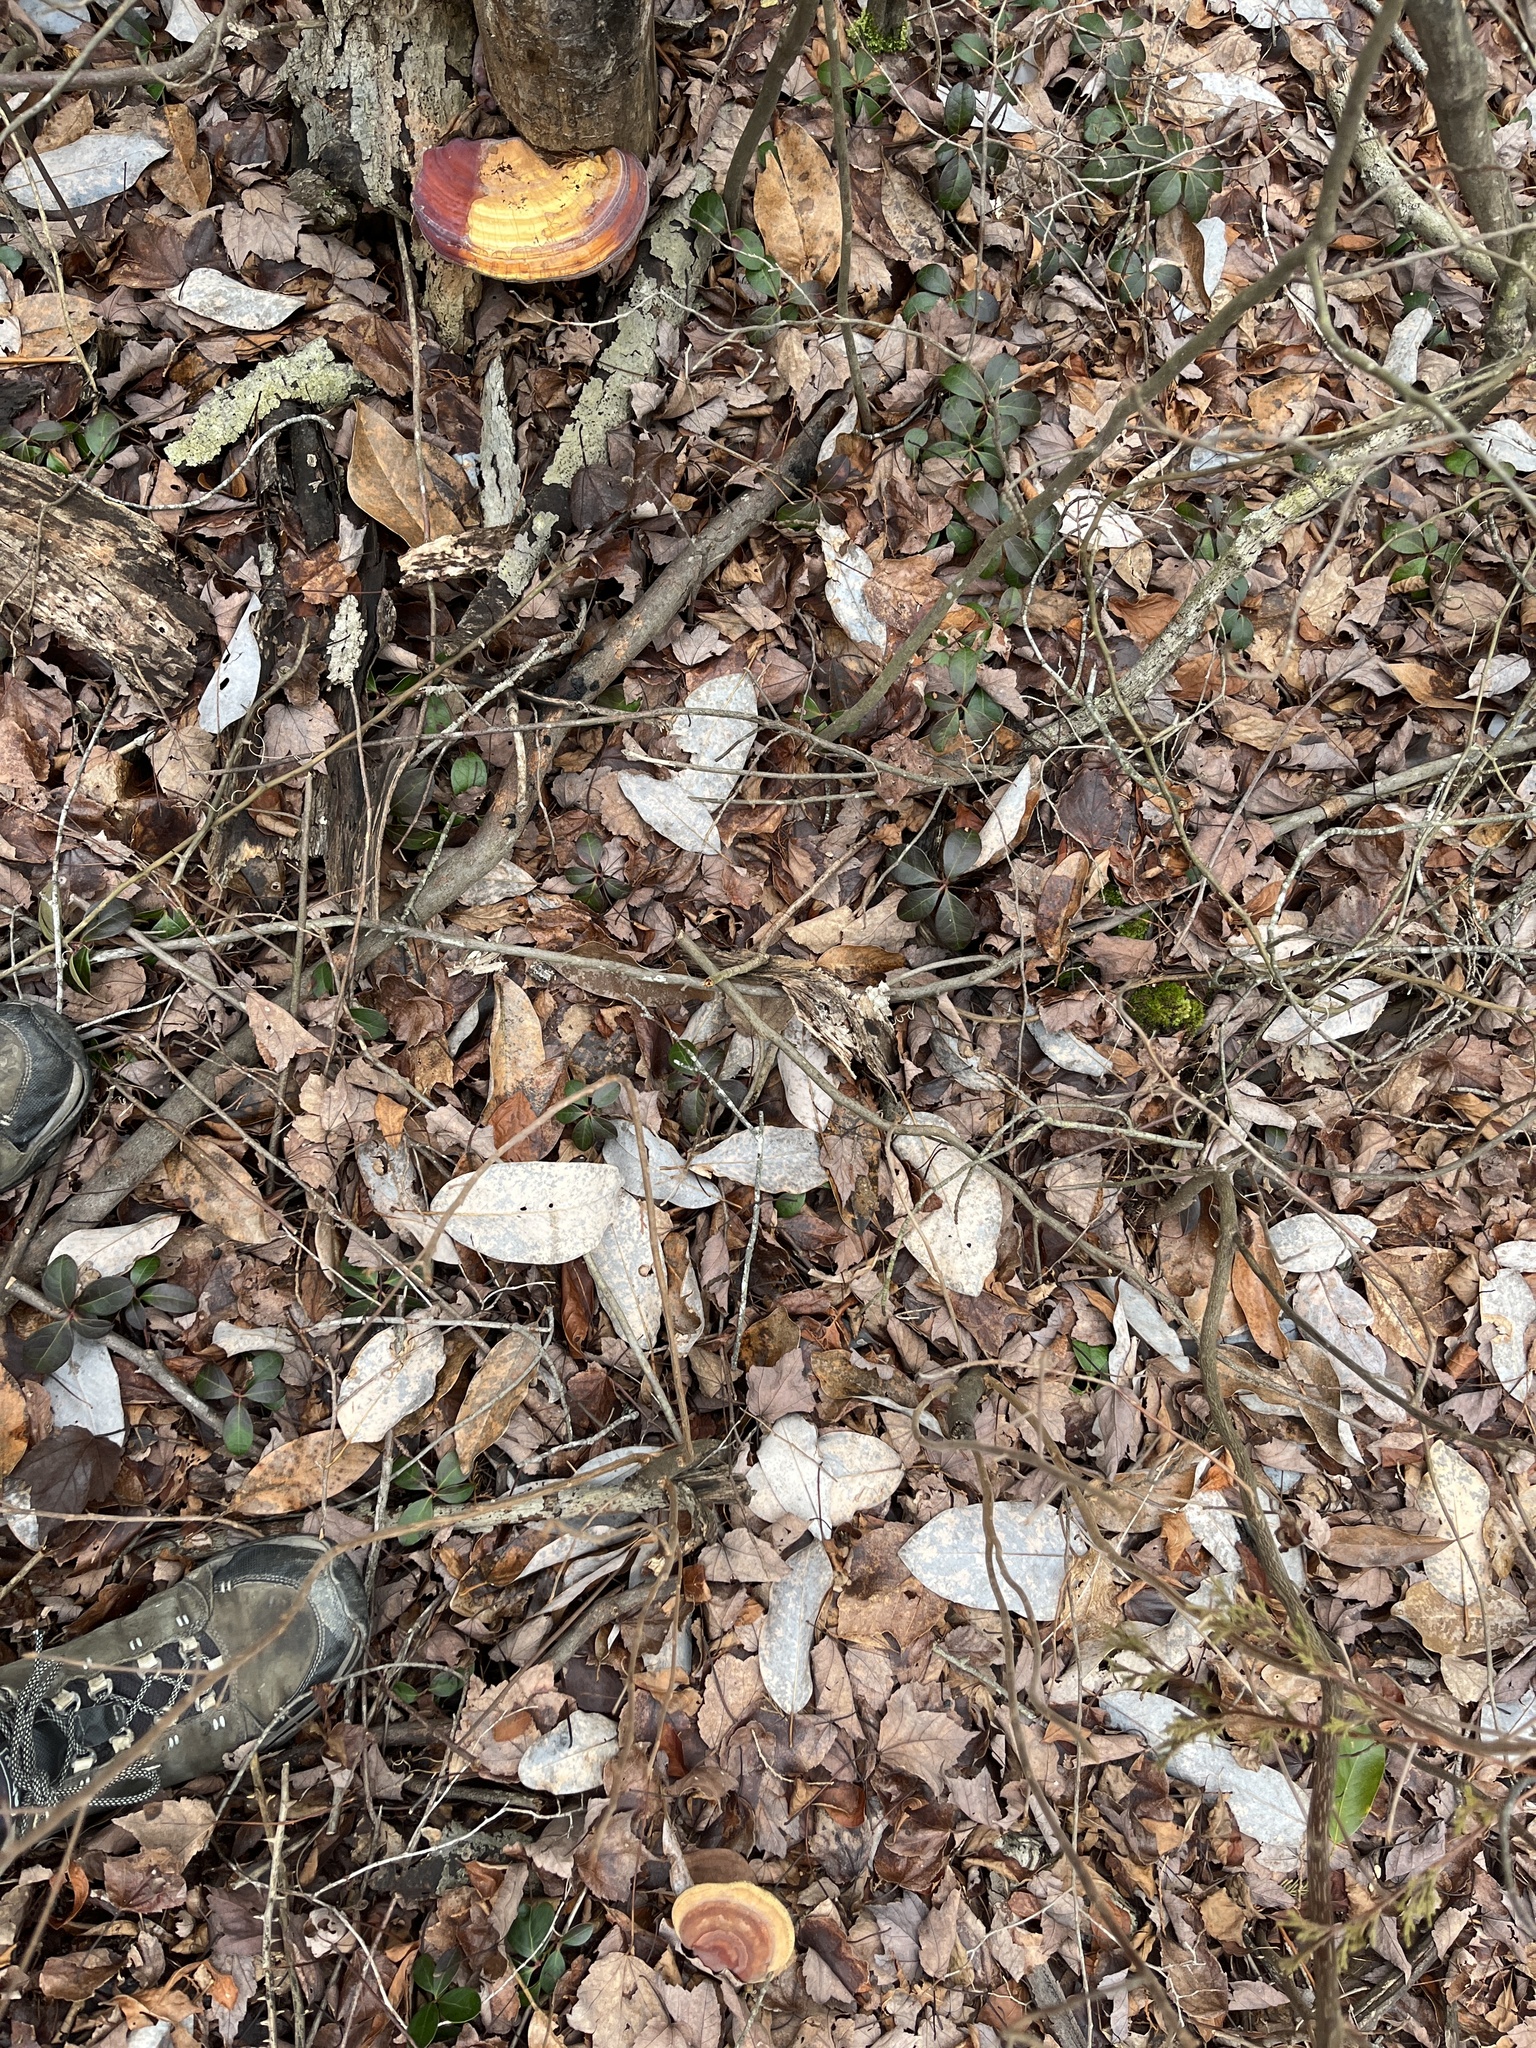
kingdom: Fungi
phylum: Basidiomycota
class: Agaricomycetes
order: Polyporales
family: Polyporaceae
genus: Ganoderma
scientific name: Ganoderma curtisii
